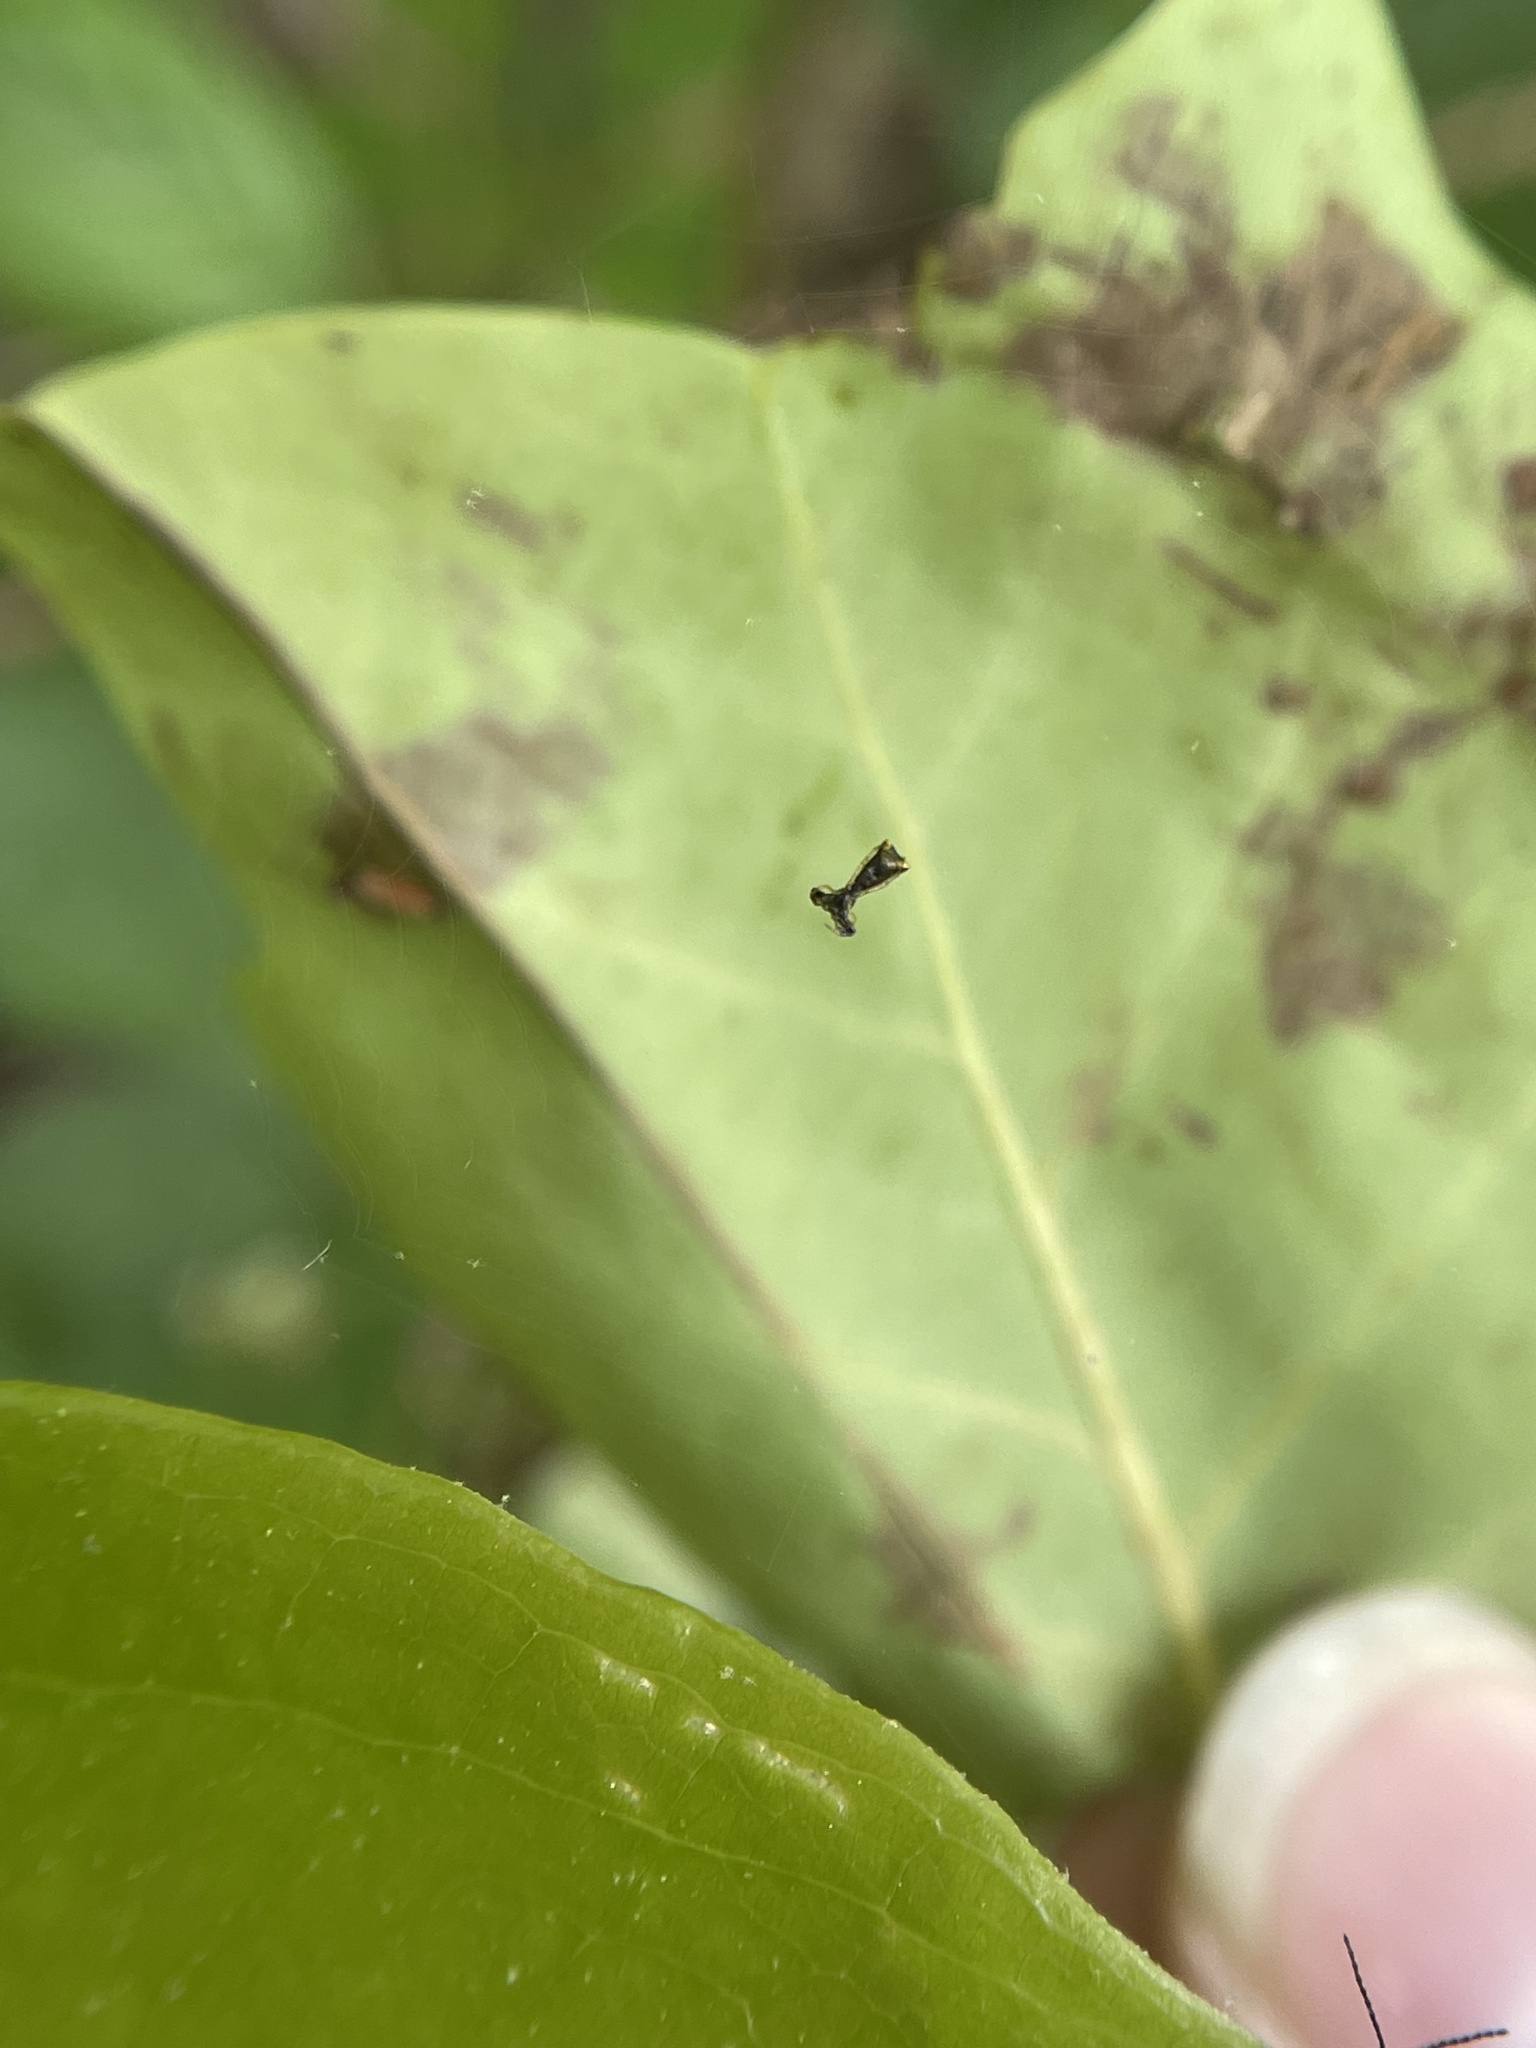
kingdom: Animalia
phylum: Arthropoda
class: Arachnida
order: Araneae
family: Araneidae
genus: Micrathena
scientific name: Micrathena sagittata
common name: Orb weavers
